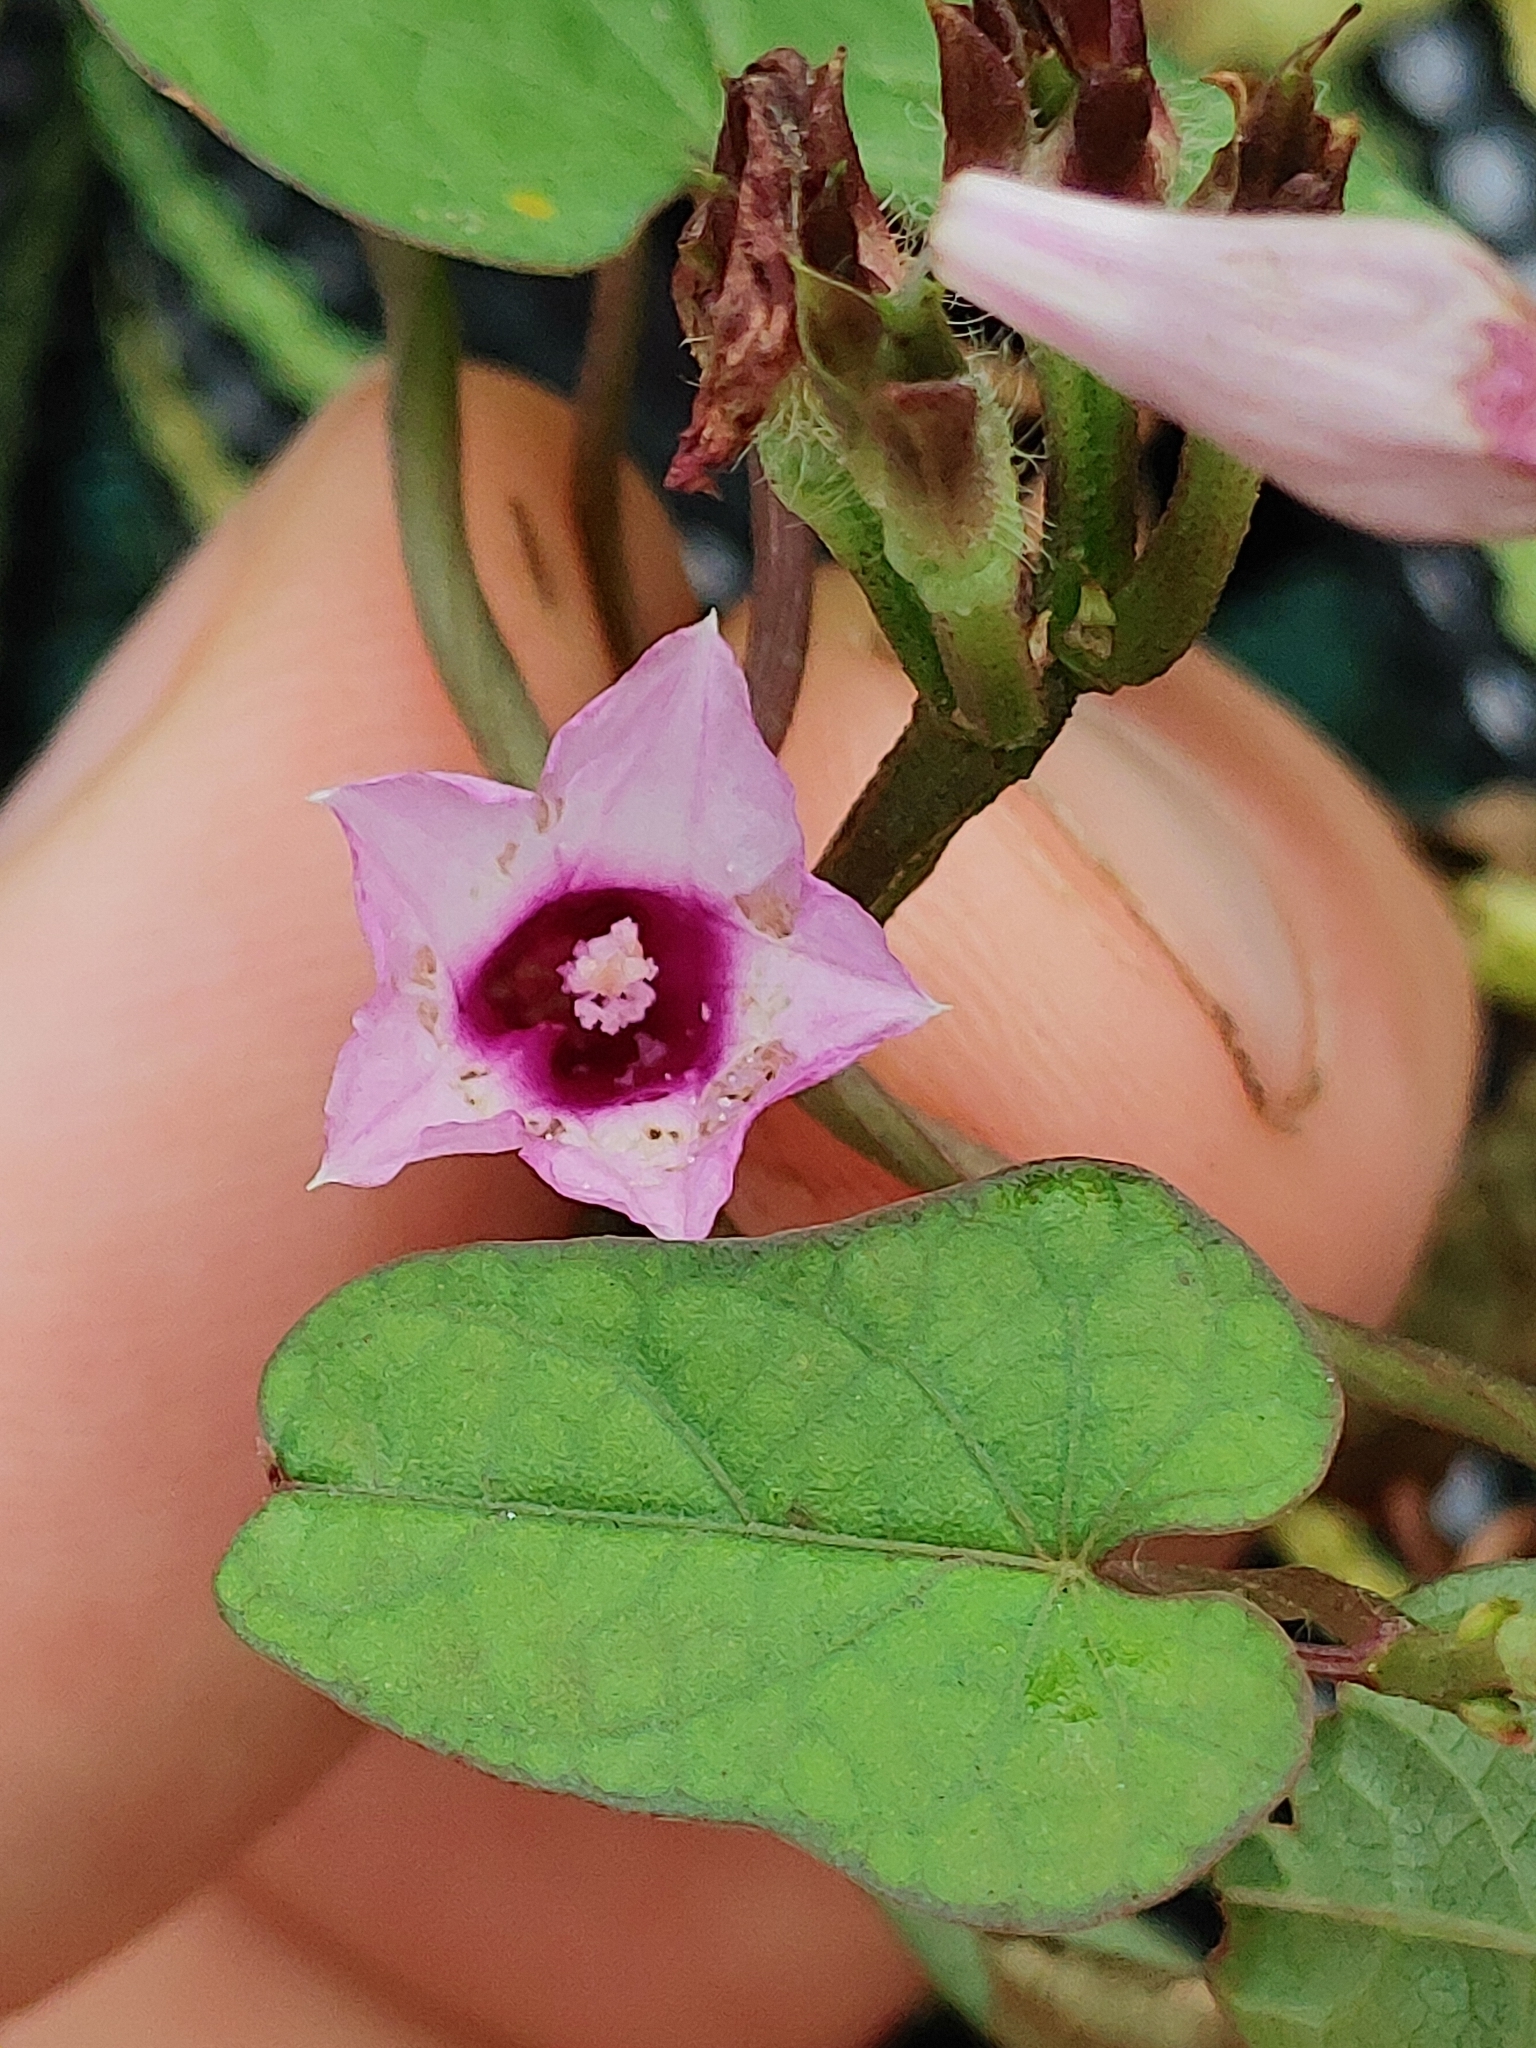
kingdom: Plantae
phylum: Tracheophyta
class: Magnoliopsida
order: Solanales
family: Convolvulaceae
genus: Ipomoea
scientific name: Ipomoea triloba
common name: Little-bell
